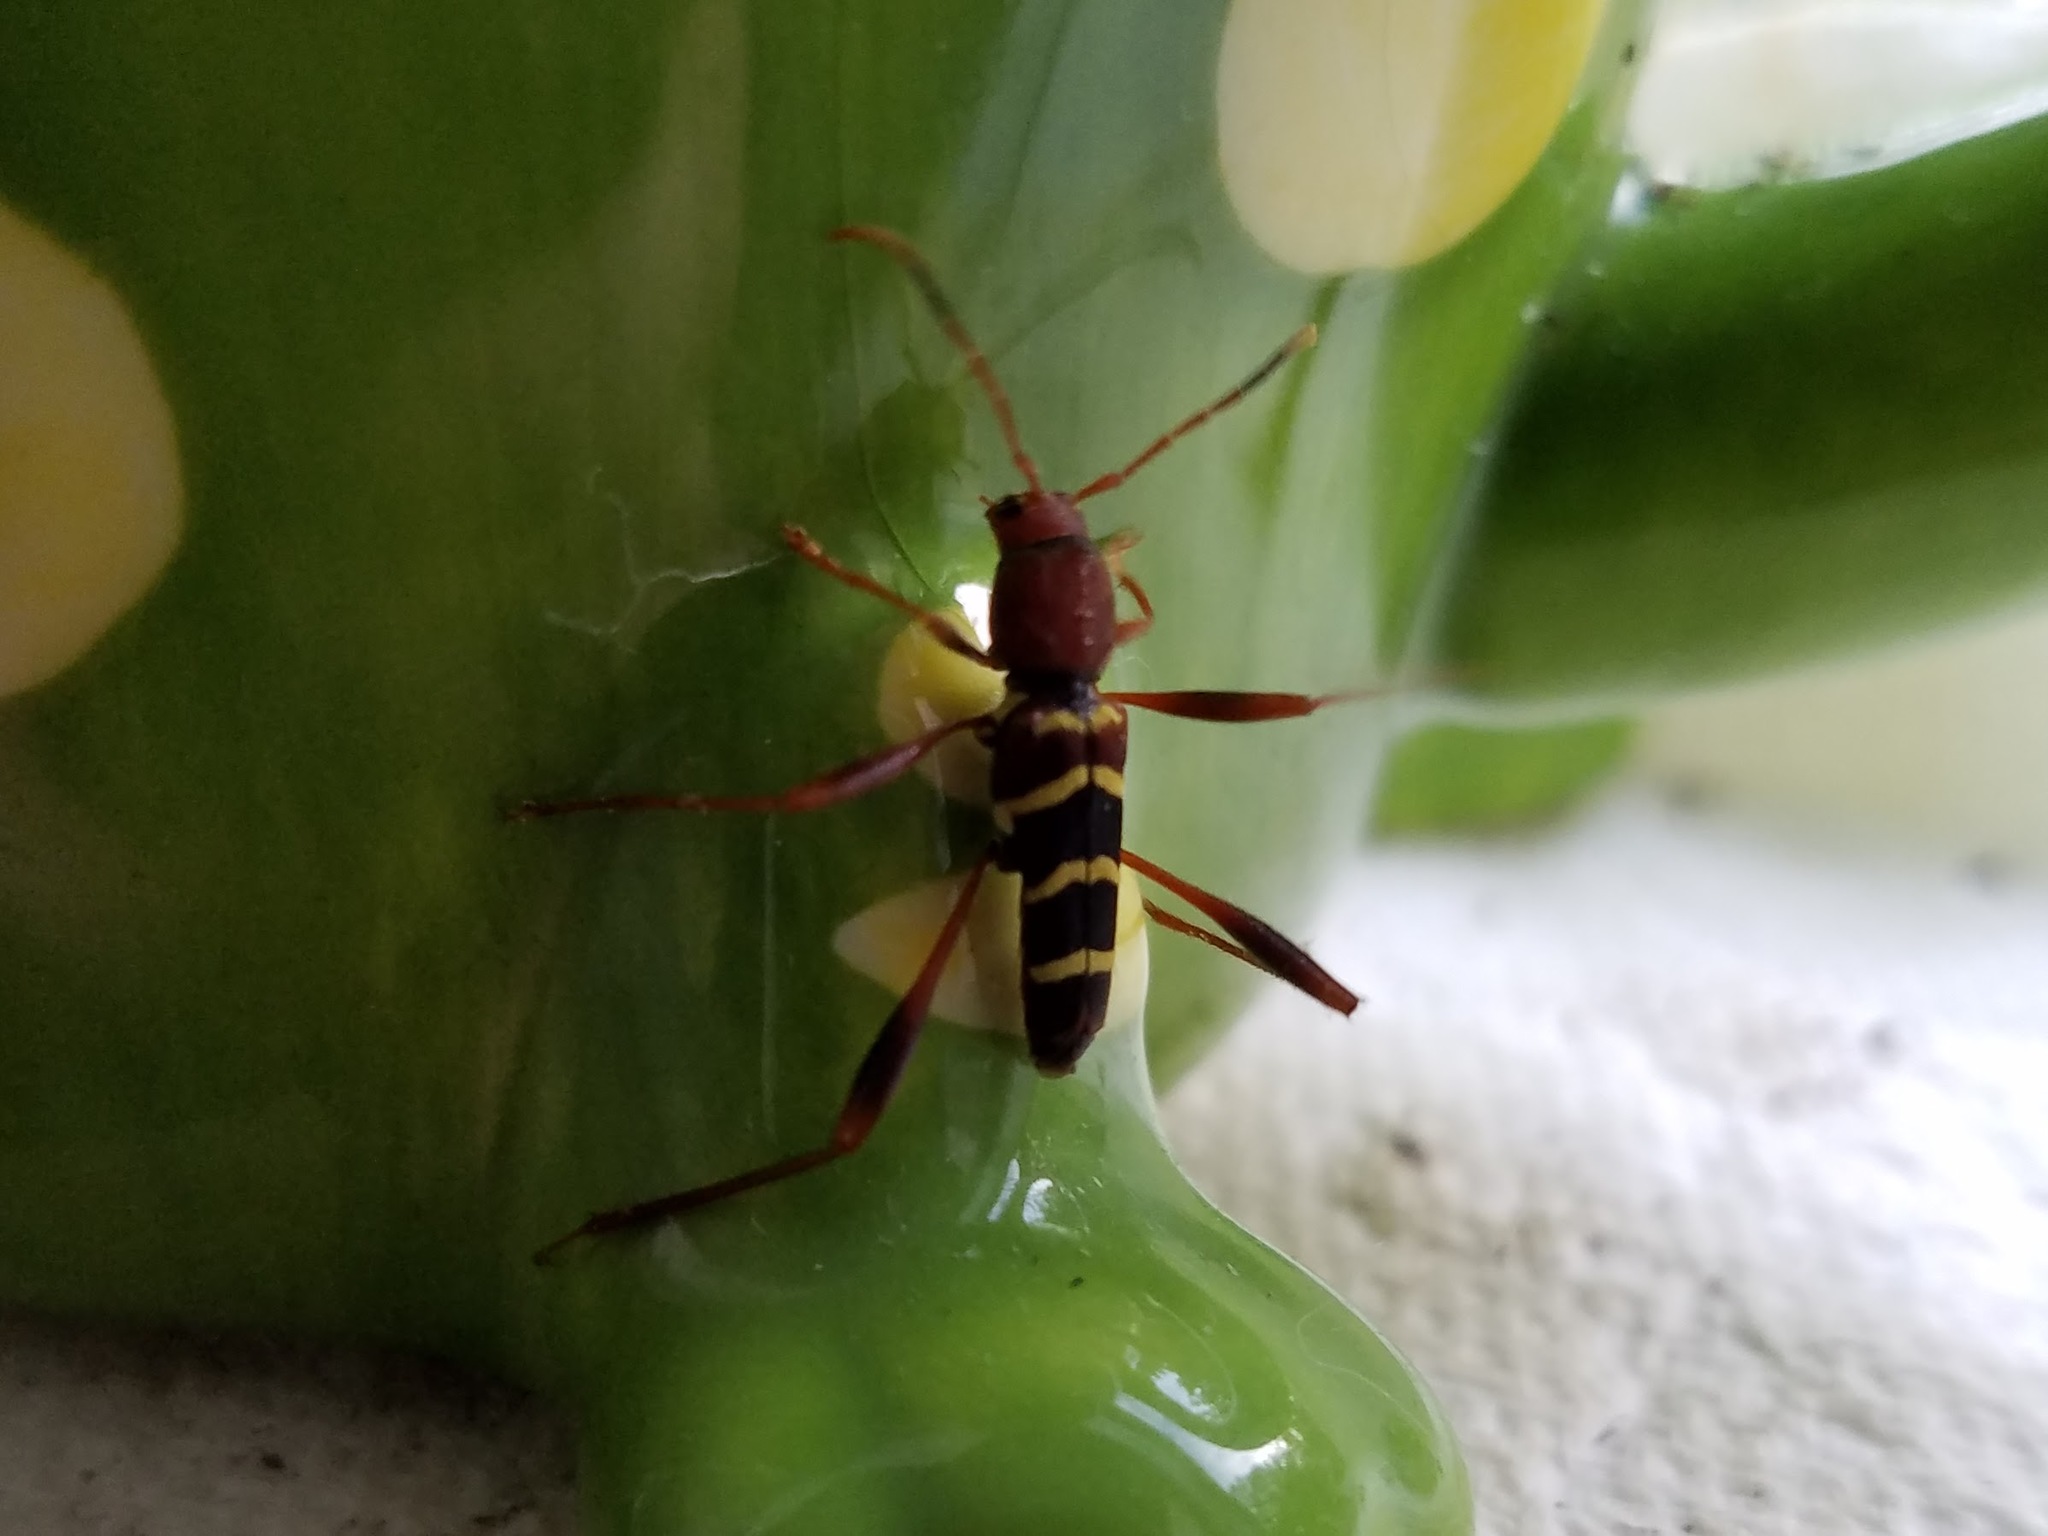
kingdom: Animalia
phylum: Arthropoda
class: Insecta
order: Coleoptera
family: Cerambycidae
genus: Neoclytus
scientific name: Neoclytus acuminatus
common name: Read-headed ash borer
